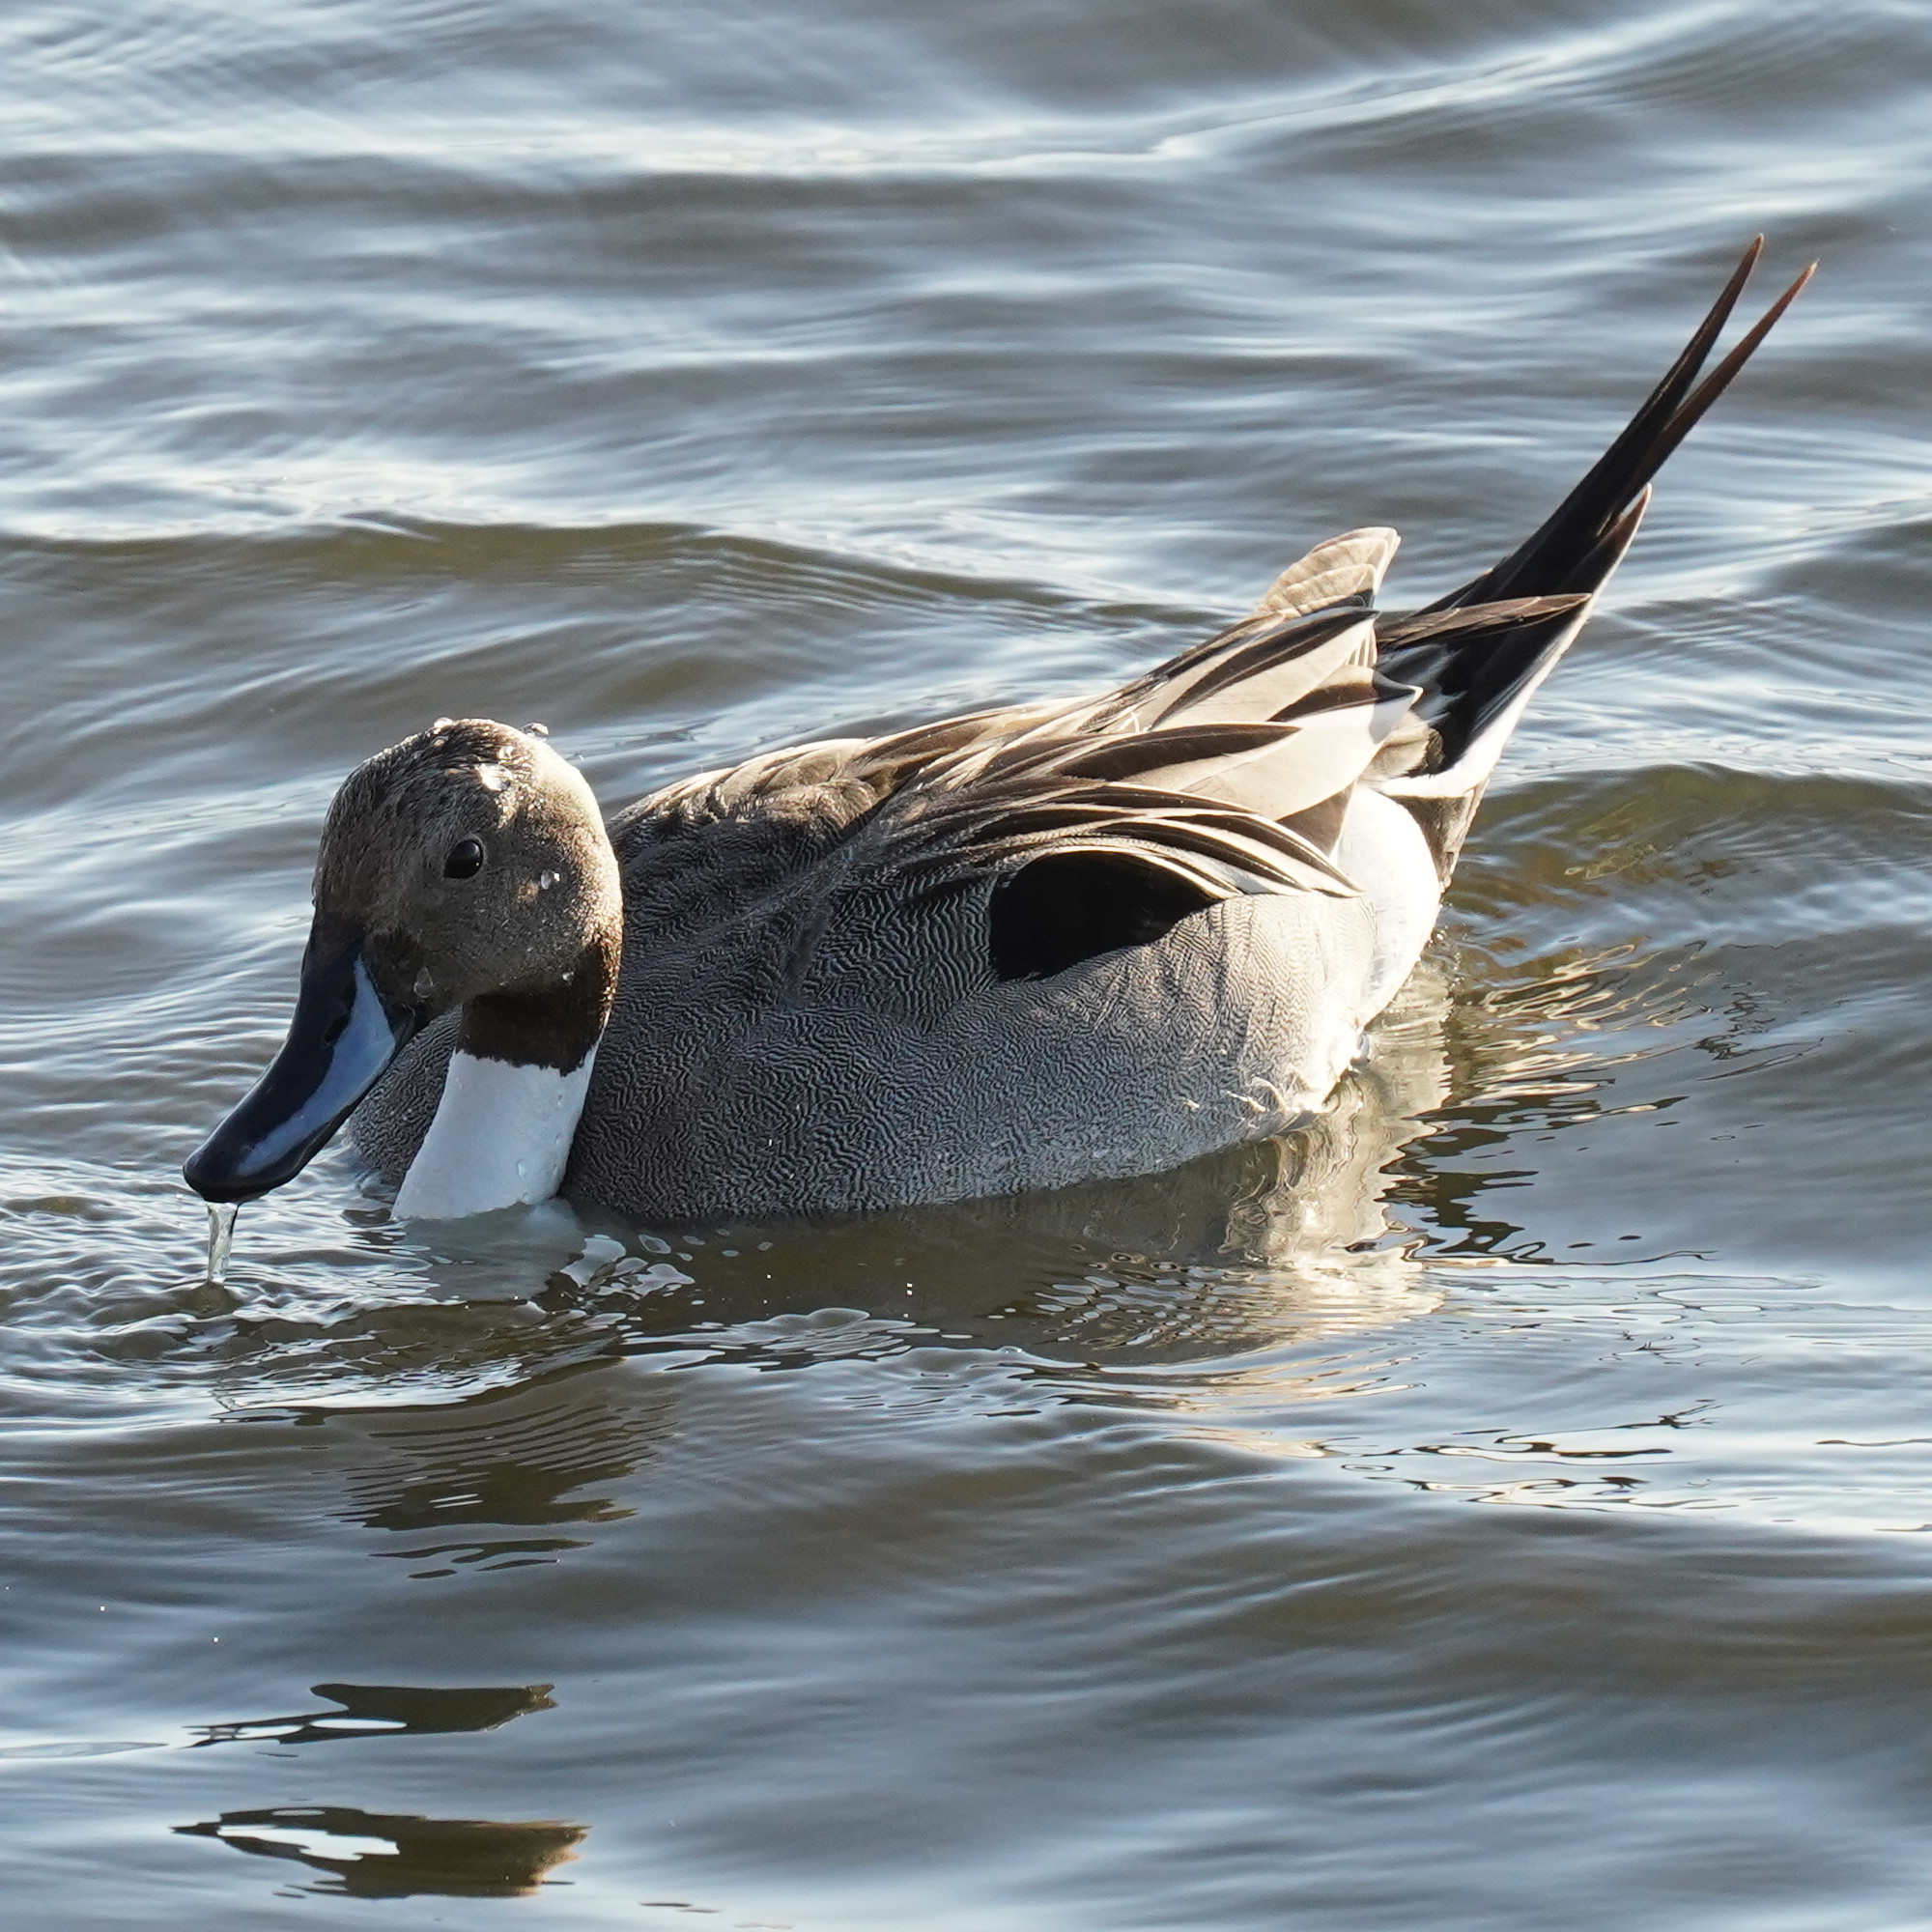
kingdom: Animalia
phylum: Chordata
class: Aves
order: Anseriformes
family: Anatidae
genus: Anas
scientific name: Anas acuta
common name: Northern pintail
